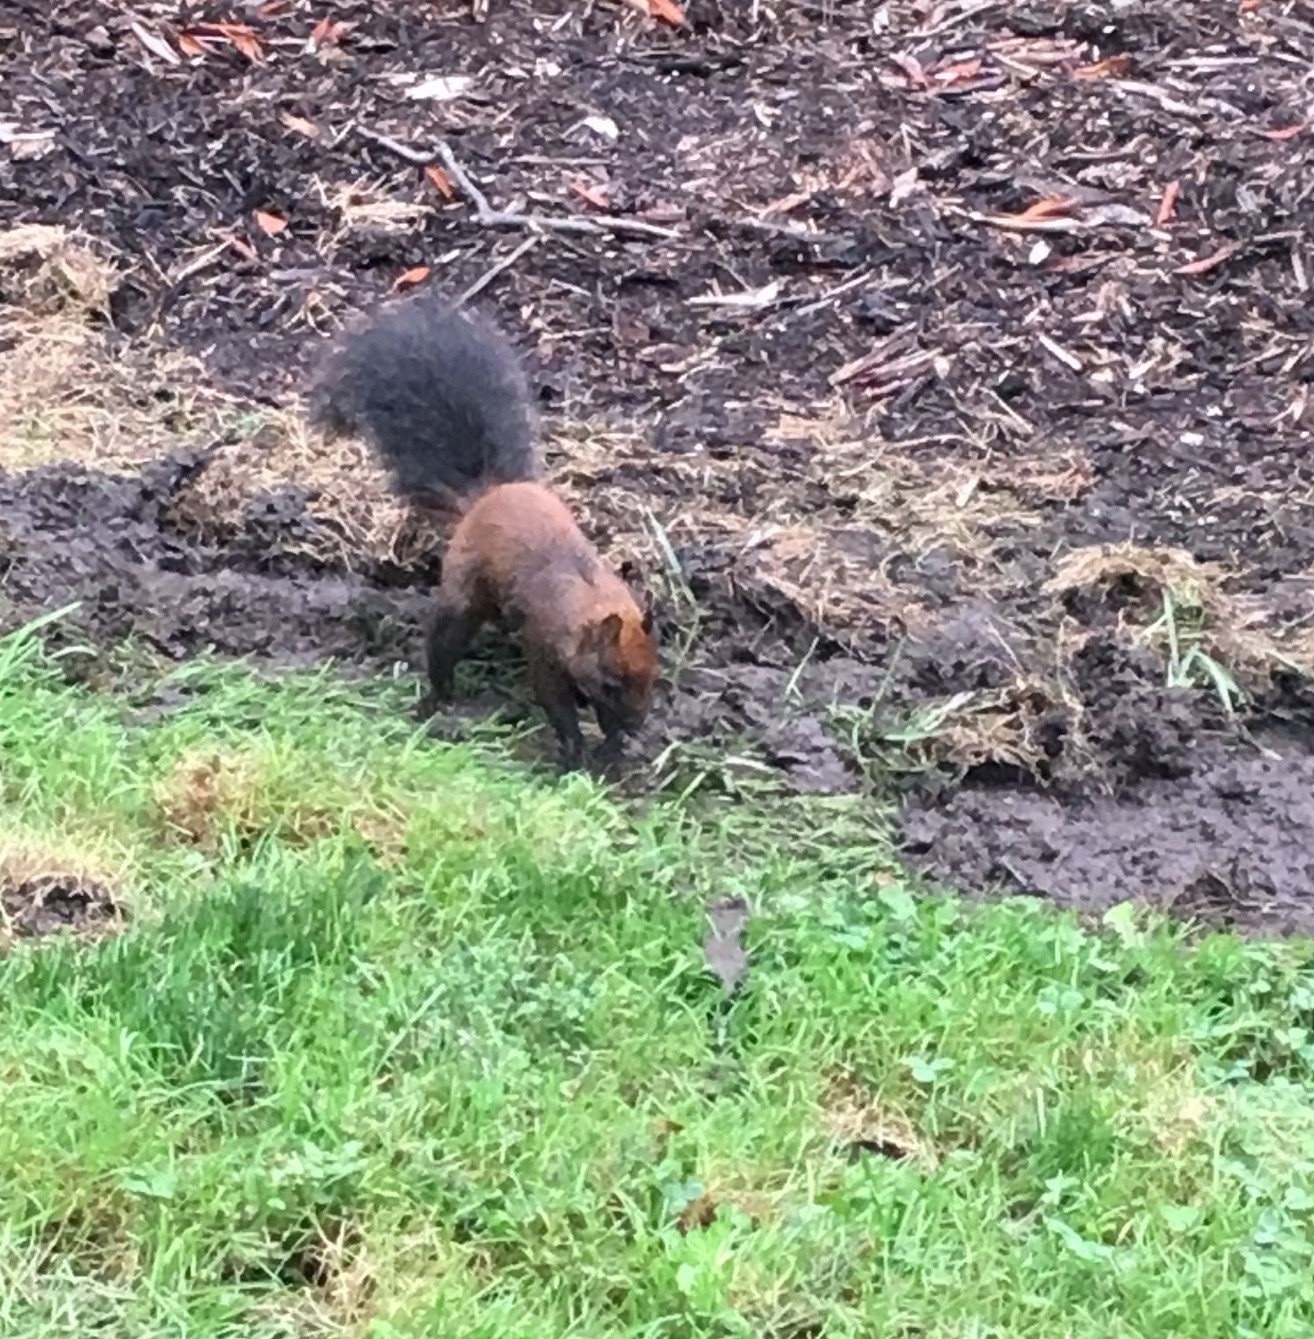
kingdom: Animalia
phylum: Chordata
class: Mammalia
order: Rodentia
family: Sciuridae
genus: Sciurus
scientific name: Sciurus carolinensis
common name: Eastern gray squirrel
